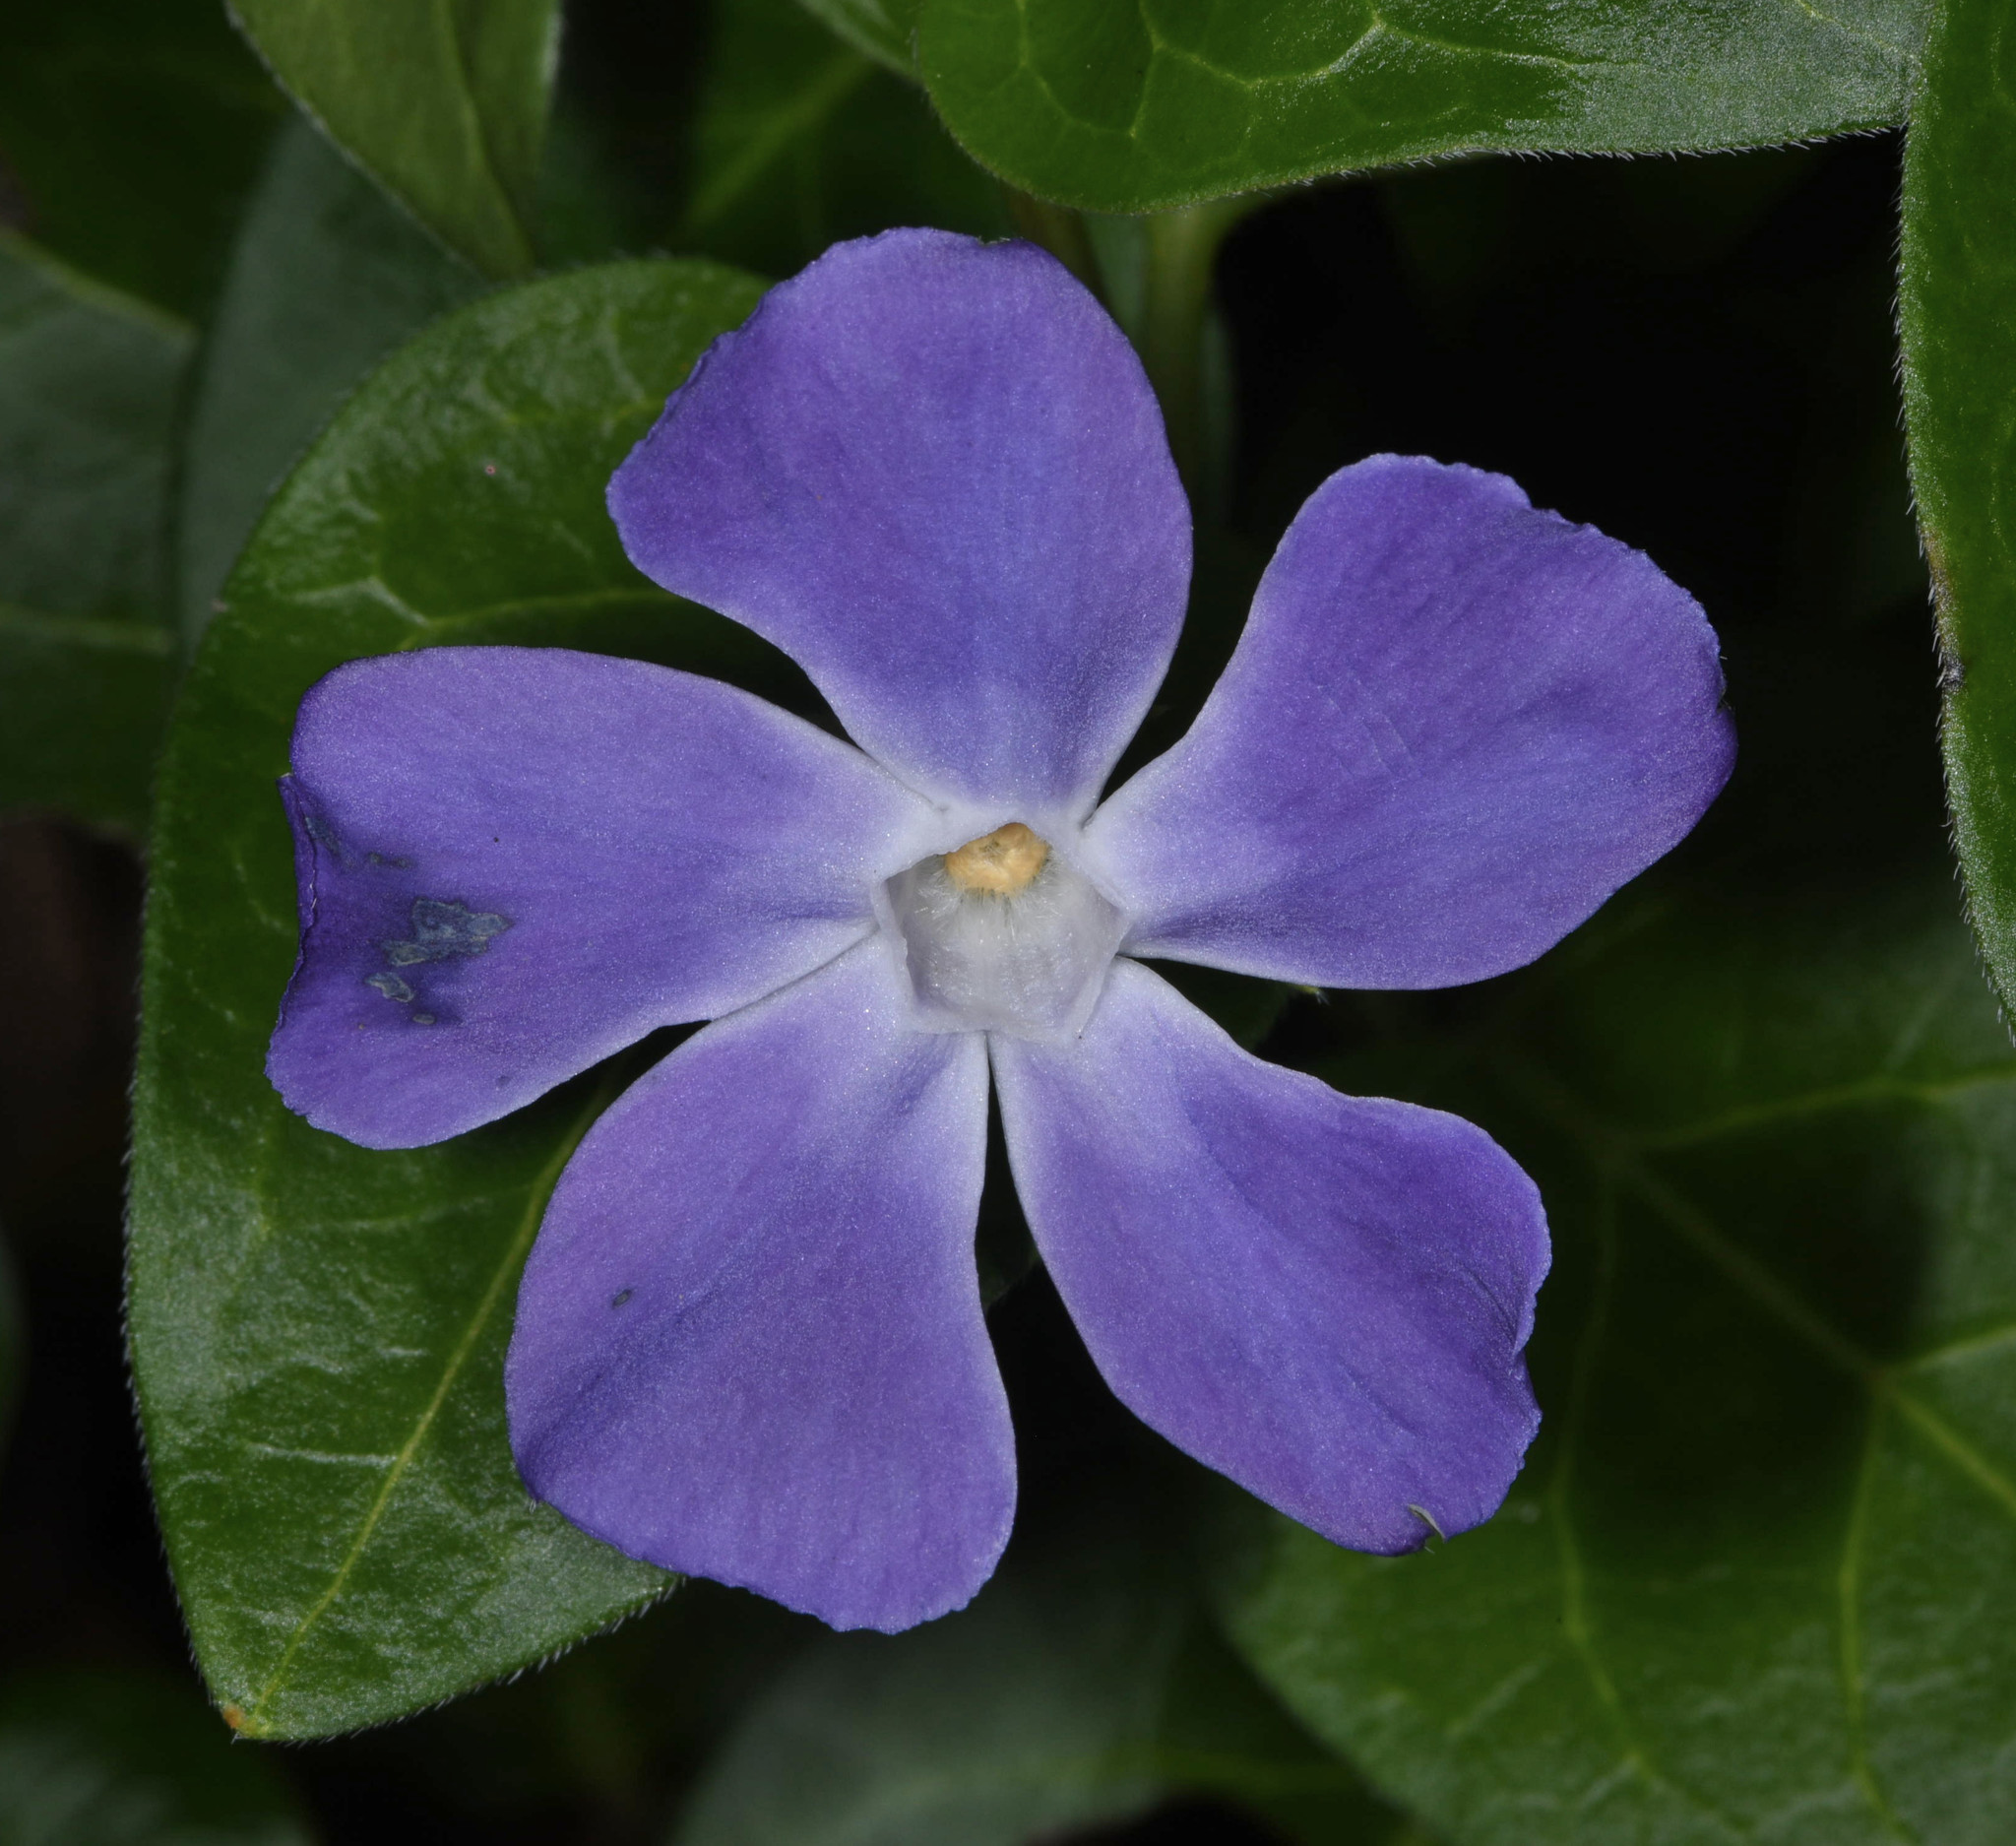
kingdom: Plantae
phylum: Tracheophyta
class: Magnoliopsida
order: Gentianales
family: Apocynaceae
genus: Vinca
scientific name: Vinca major
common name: Greater periwinkle
